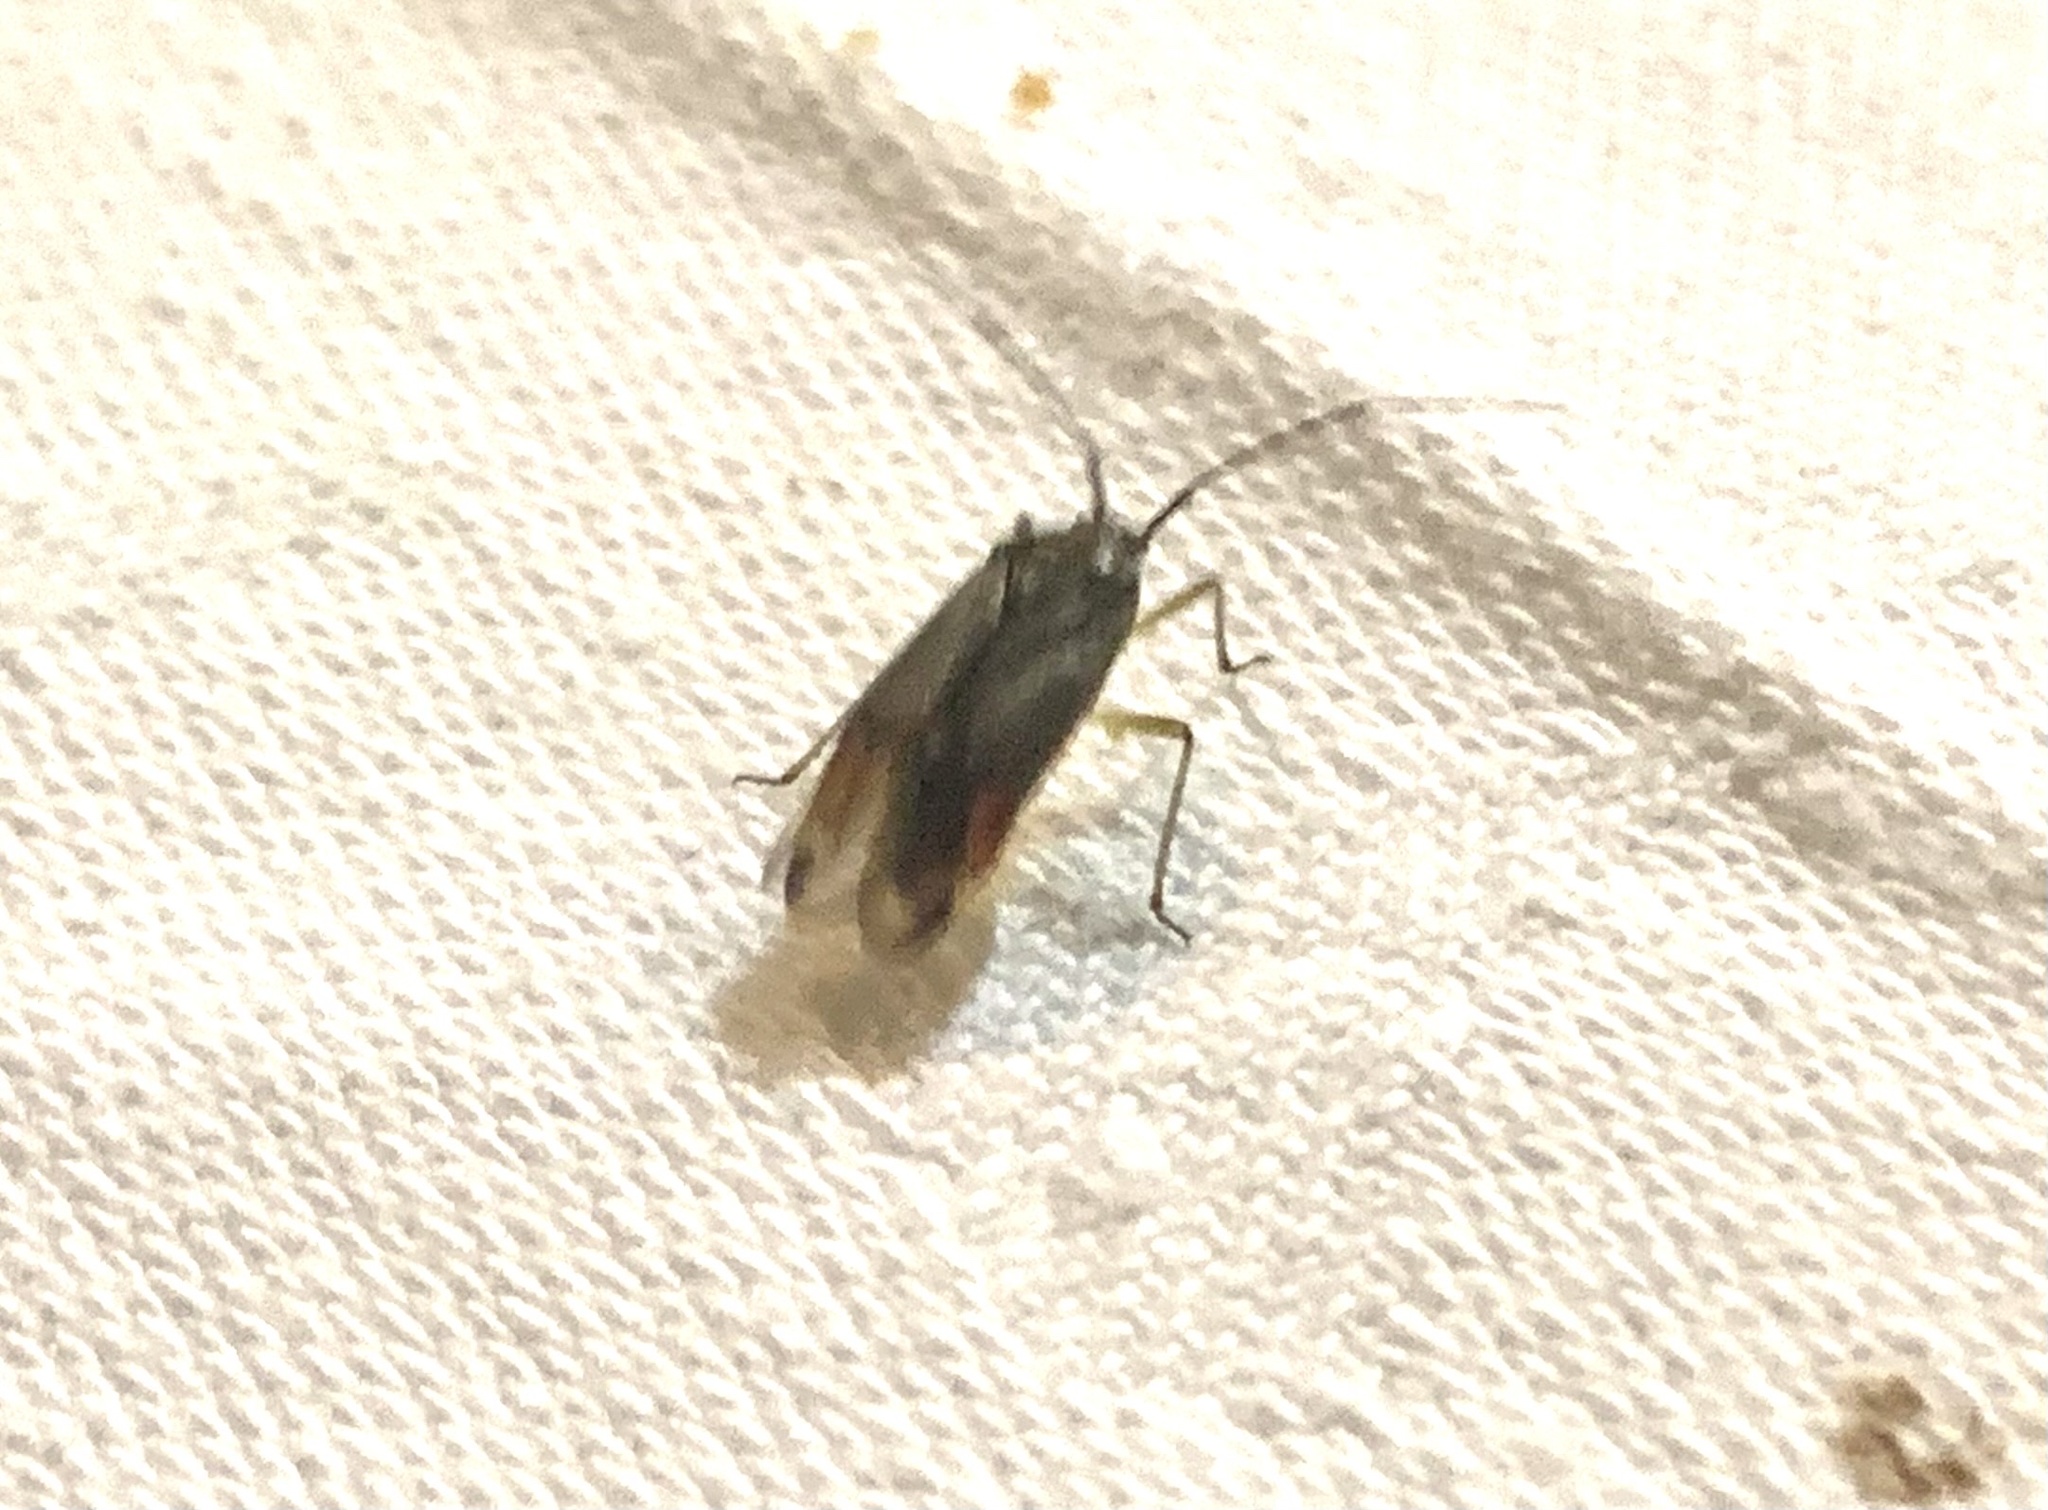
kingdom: Animalia
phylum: Arthropoda
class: Insecta
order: Hemiptera
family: Miridae
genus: Closterotomus
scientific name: Closterotomus trivialis
